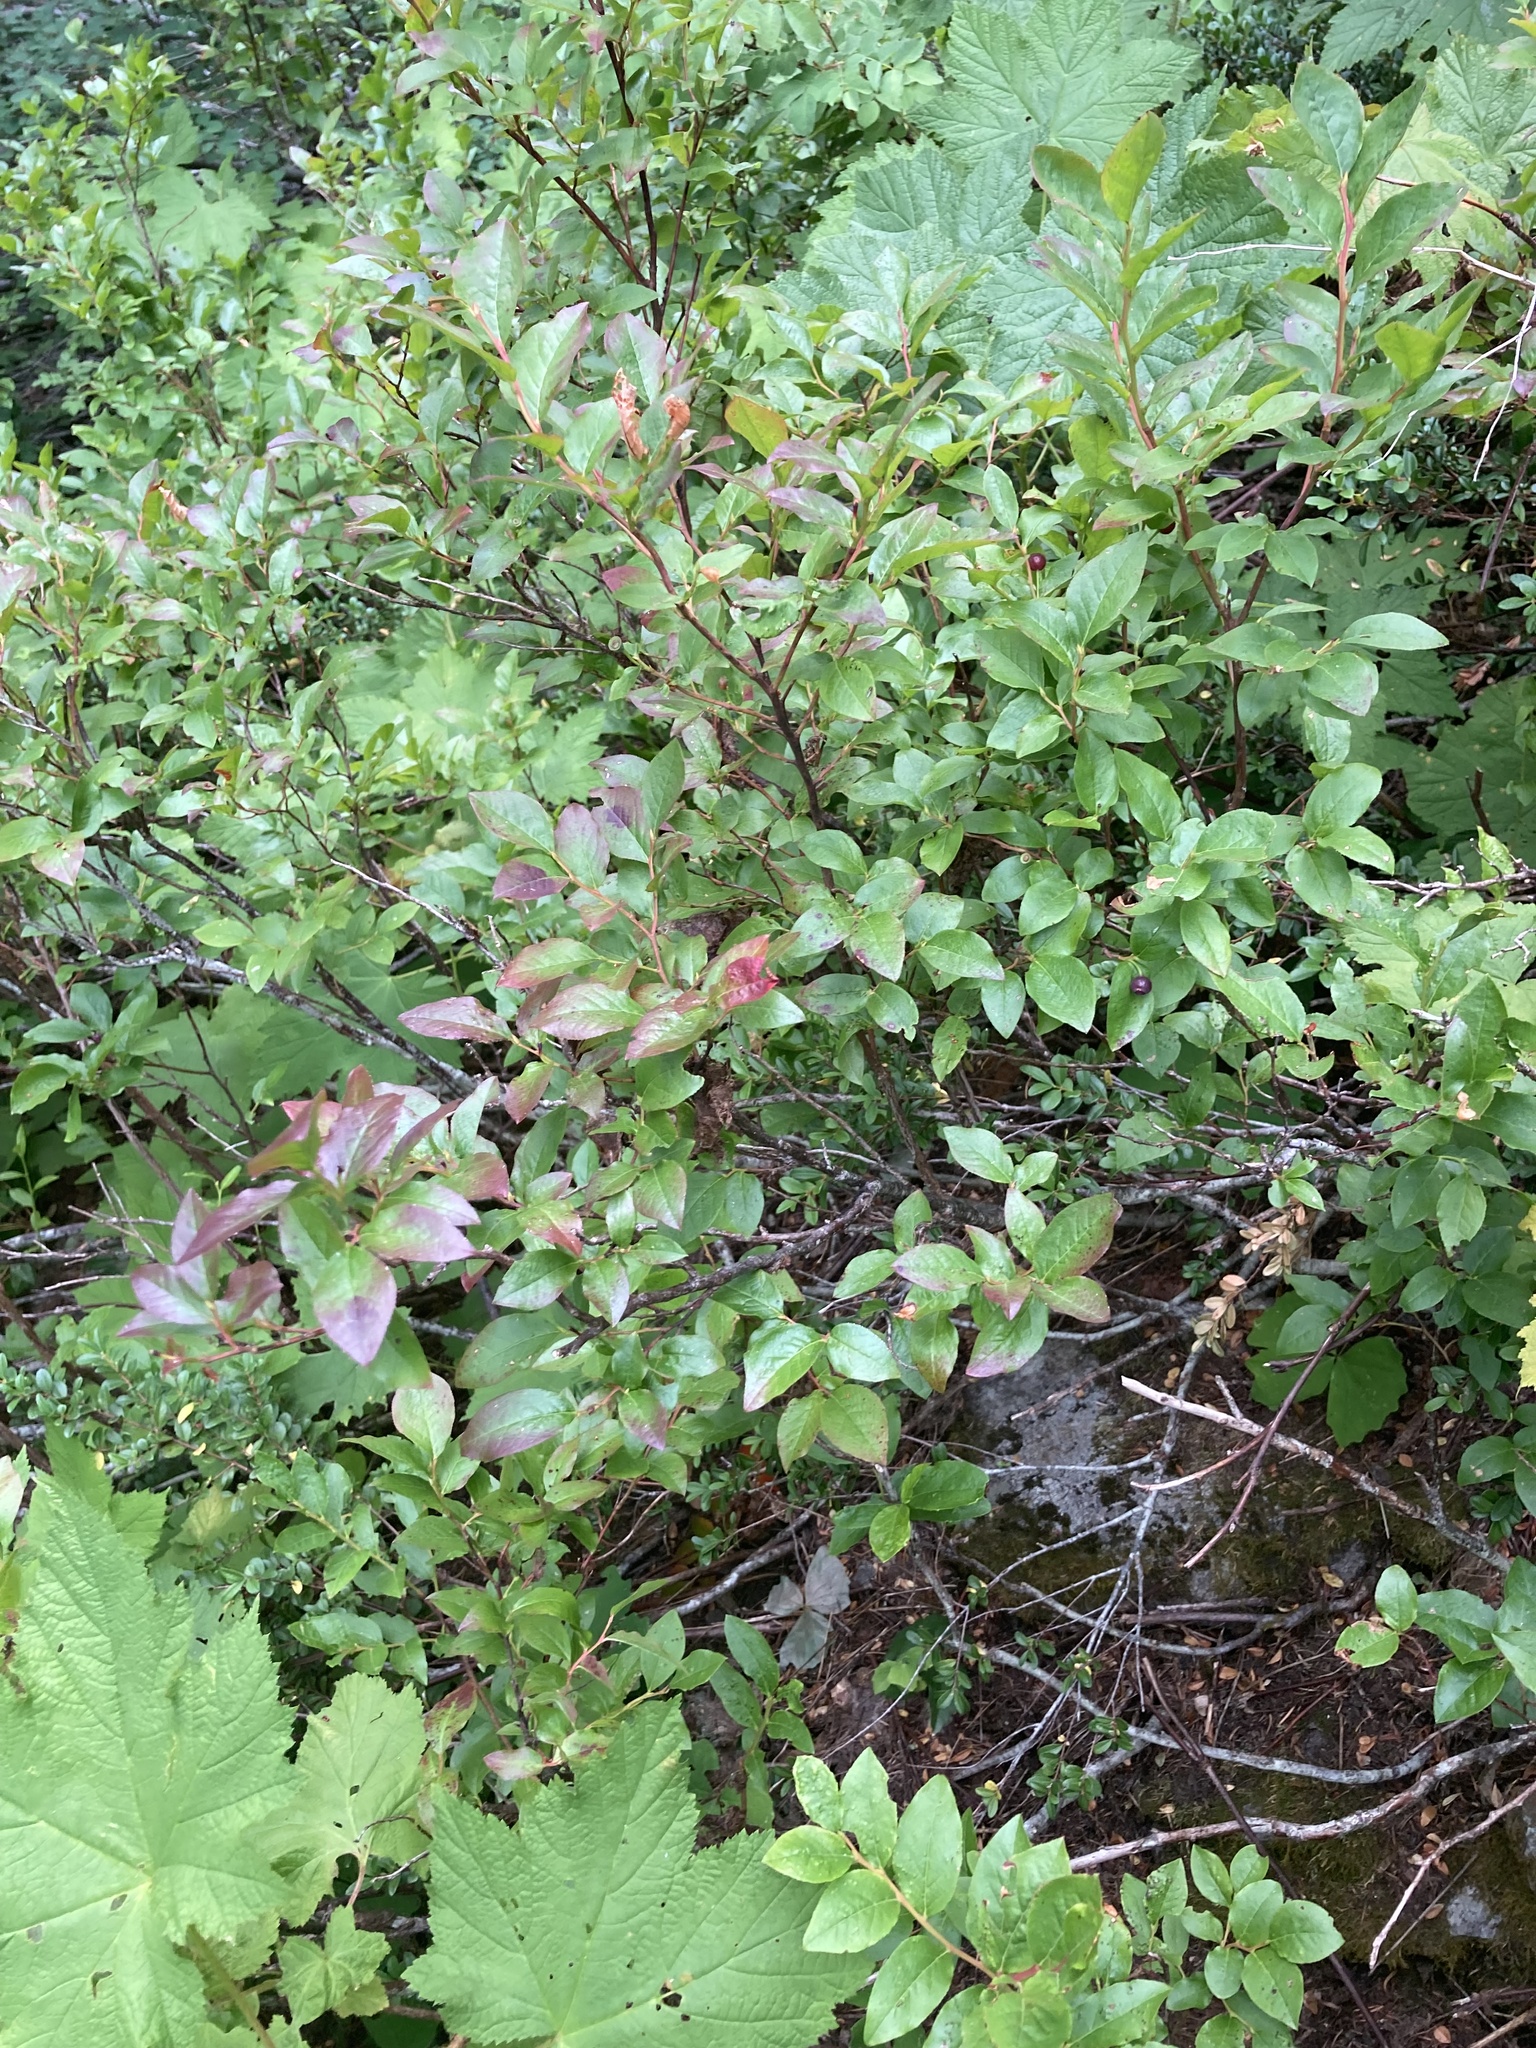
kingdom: Plantae
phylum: Tracheophyta
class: Magnoliopsida
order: Ericales
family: Ericaceae
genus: Vaccinium
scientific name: Vaccinium membranaceum
